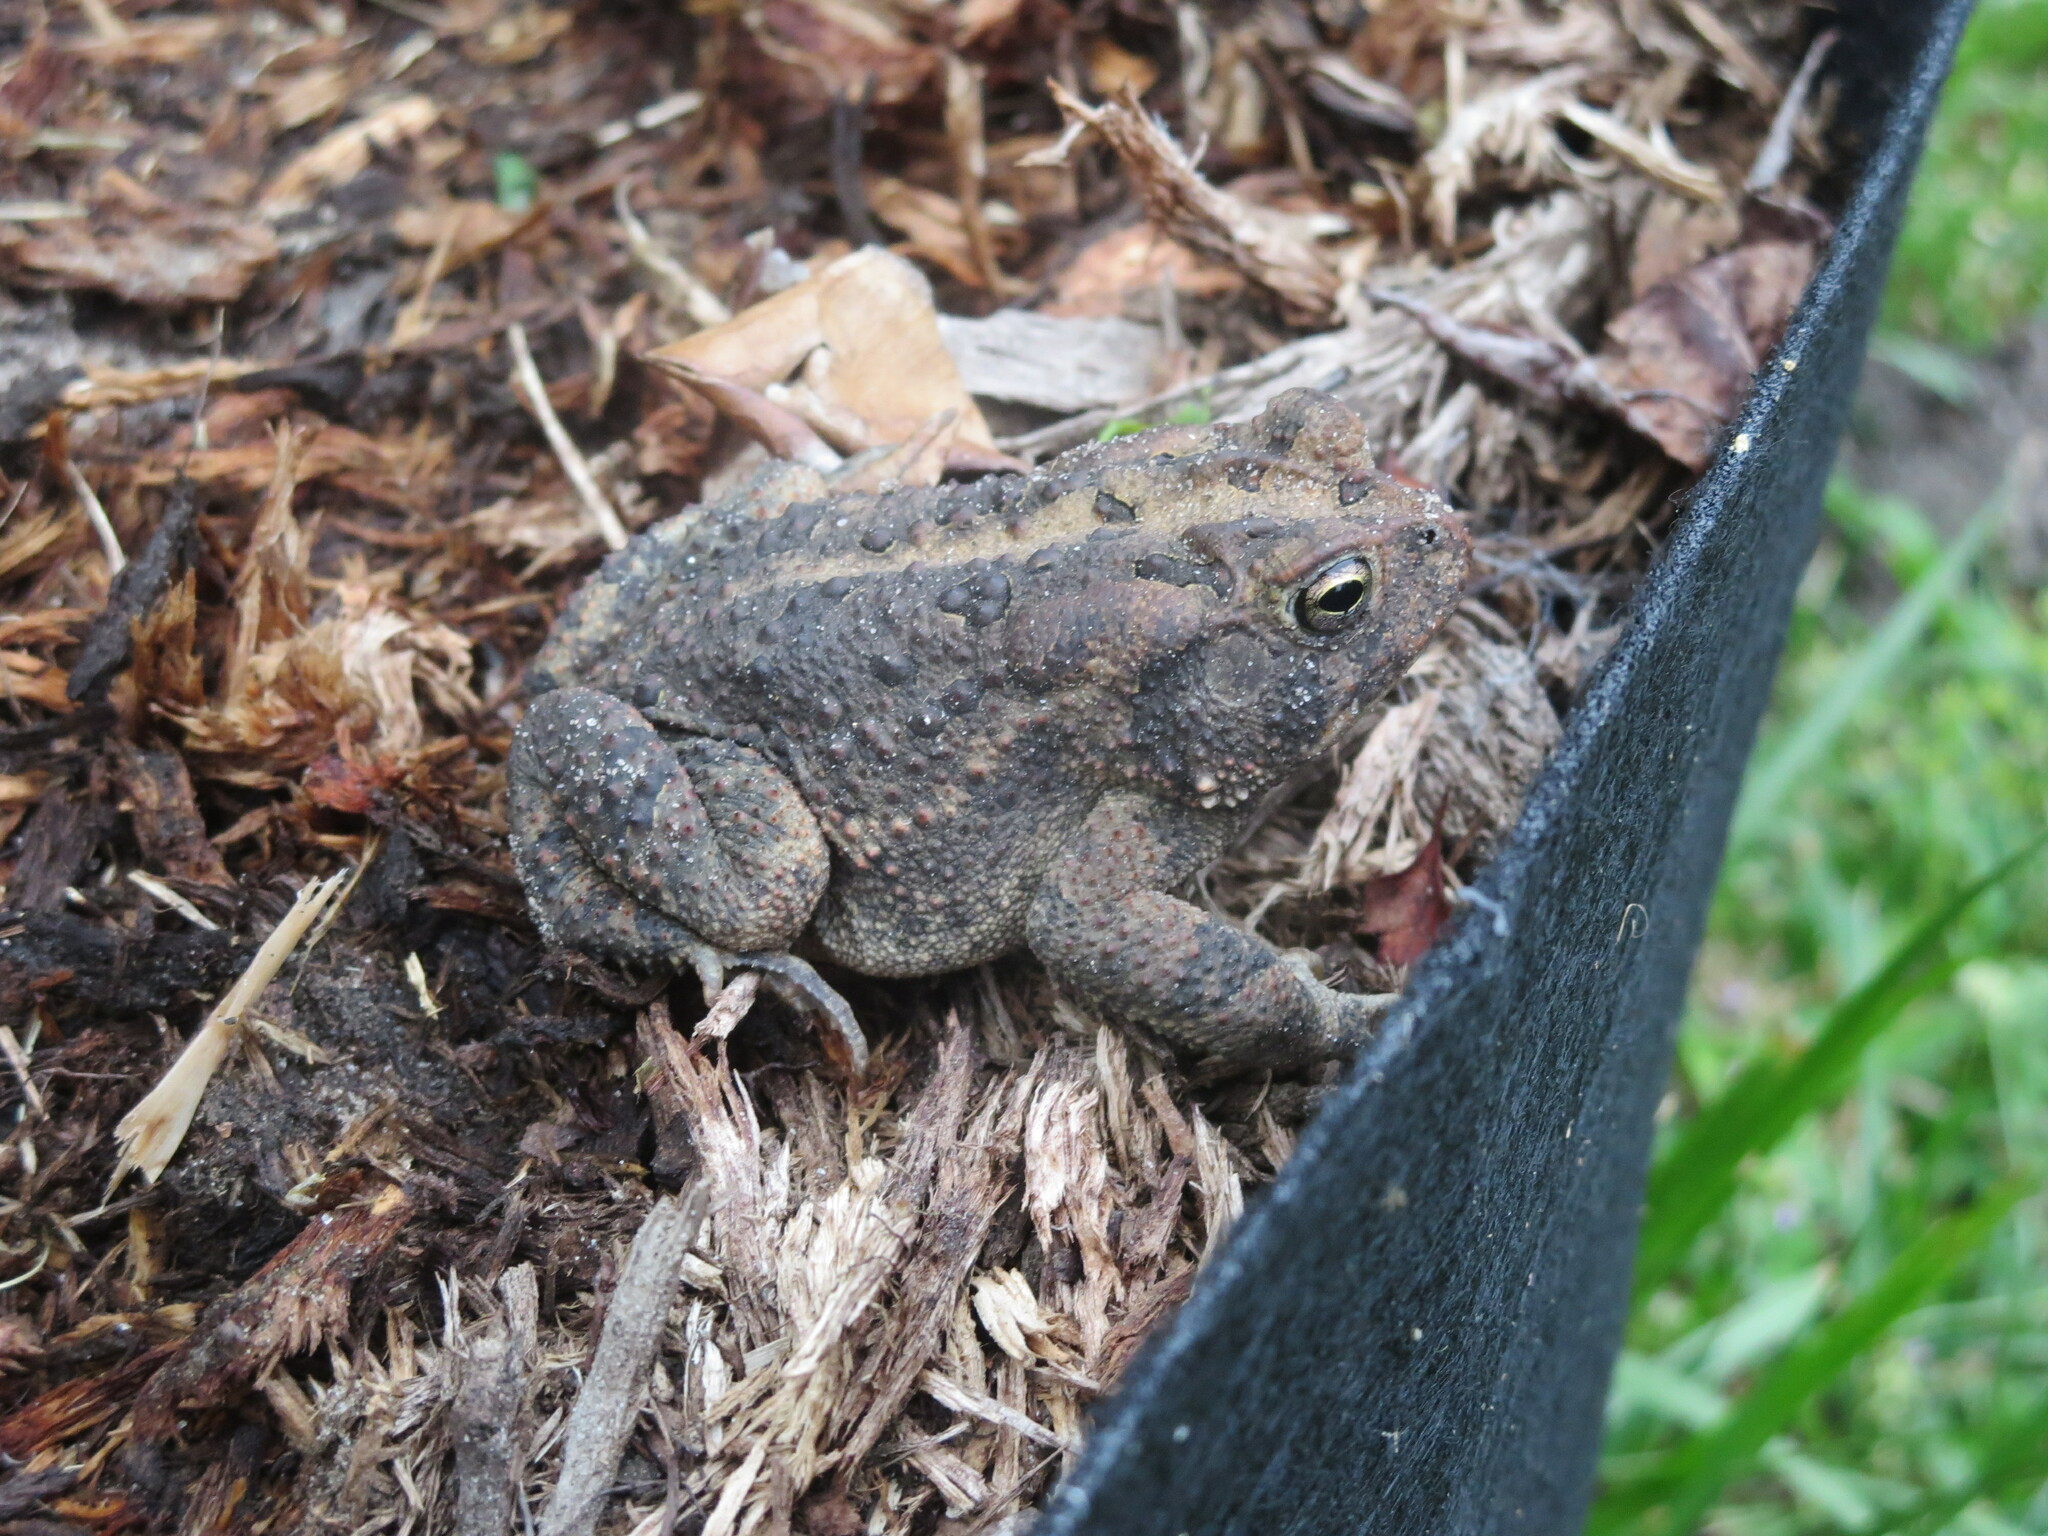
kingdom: Animalia
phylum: Chordata
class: Amphibia
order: Anura
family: Bufonidae
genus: Anaxyrus
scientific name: Anaxyrus terrestris
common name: Southern toad
